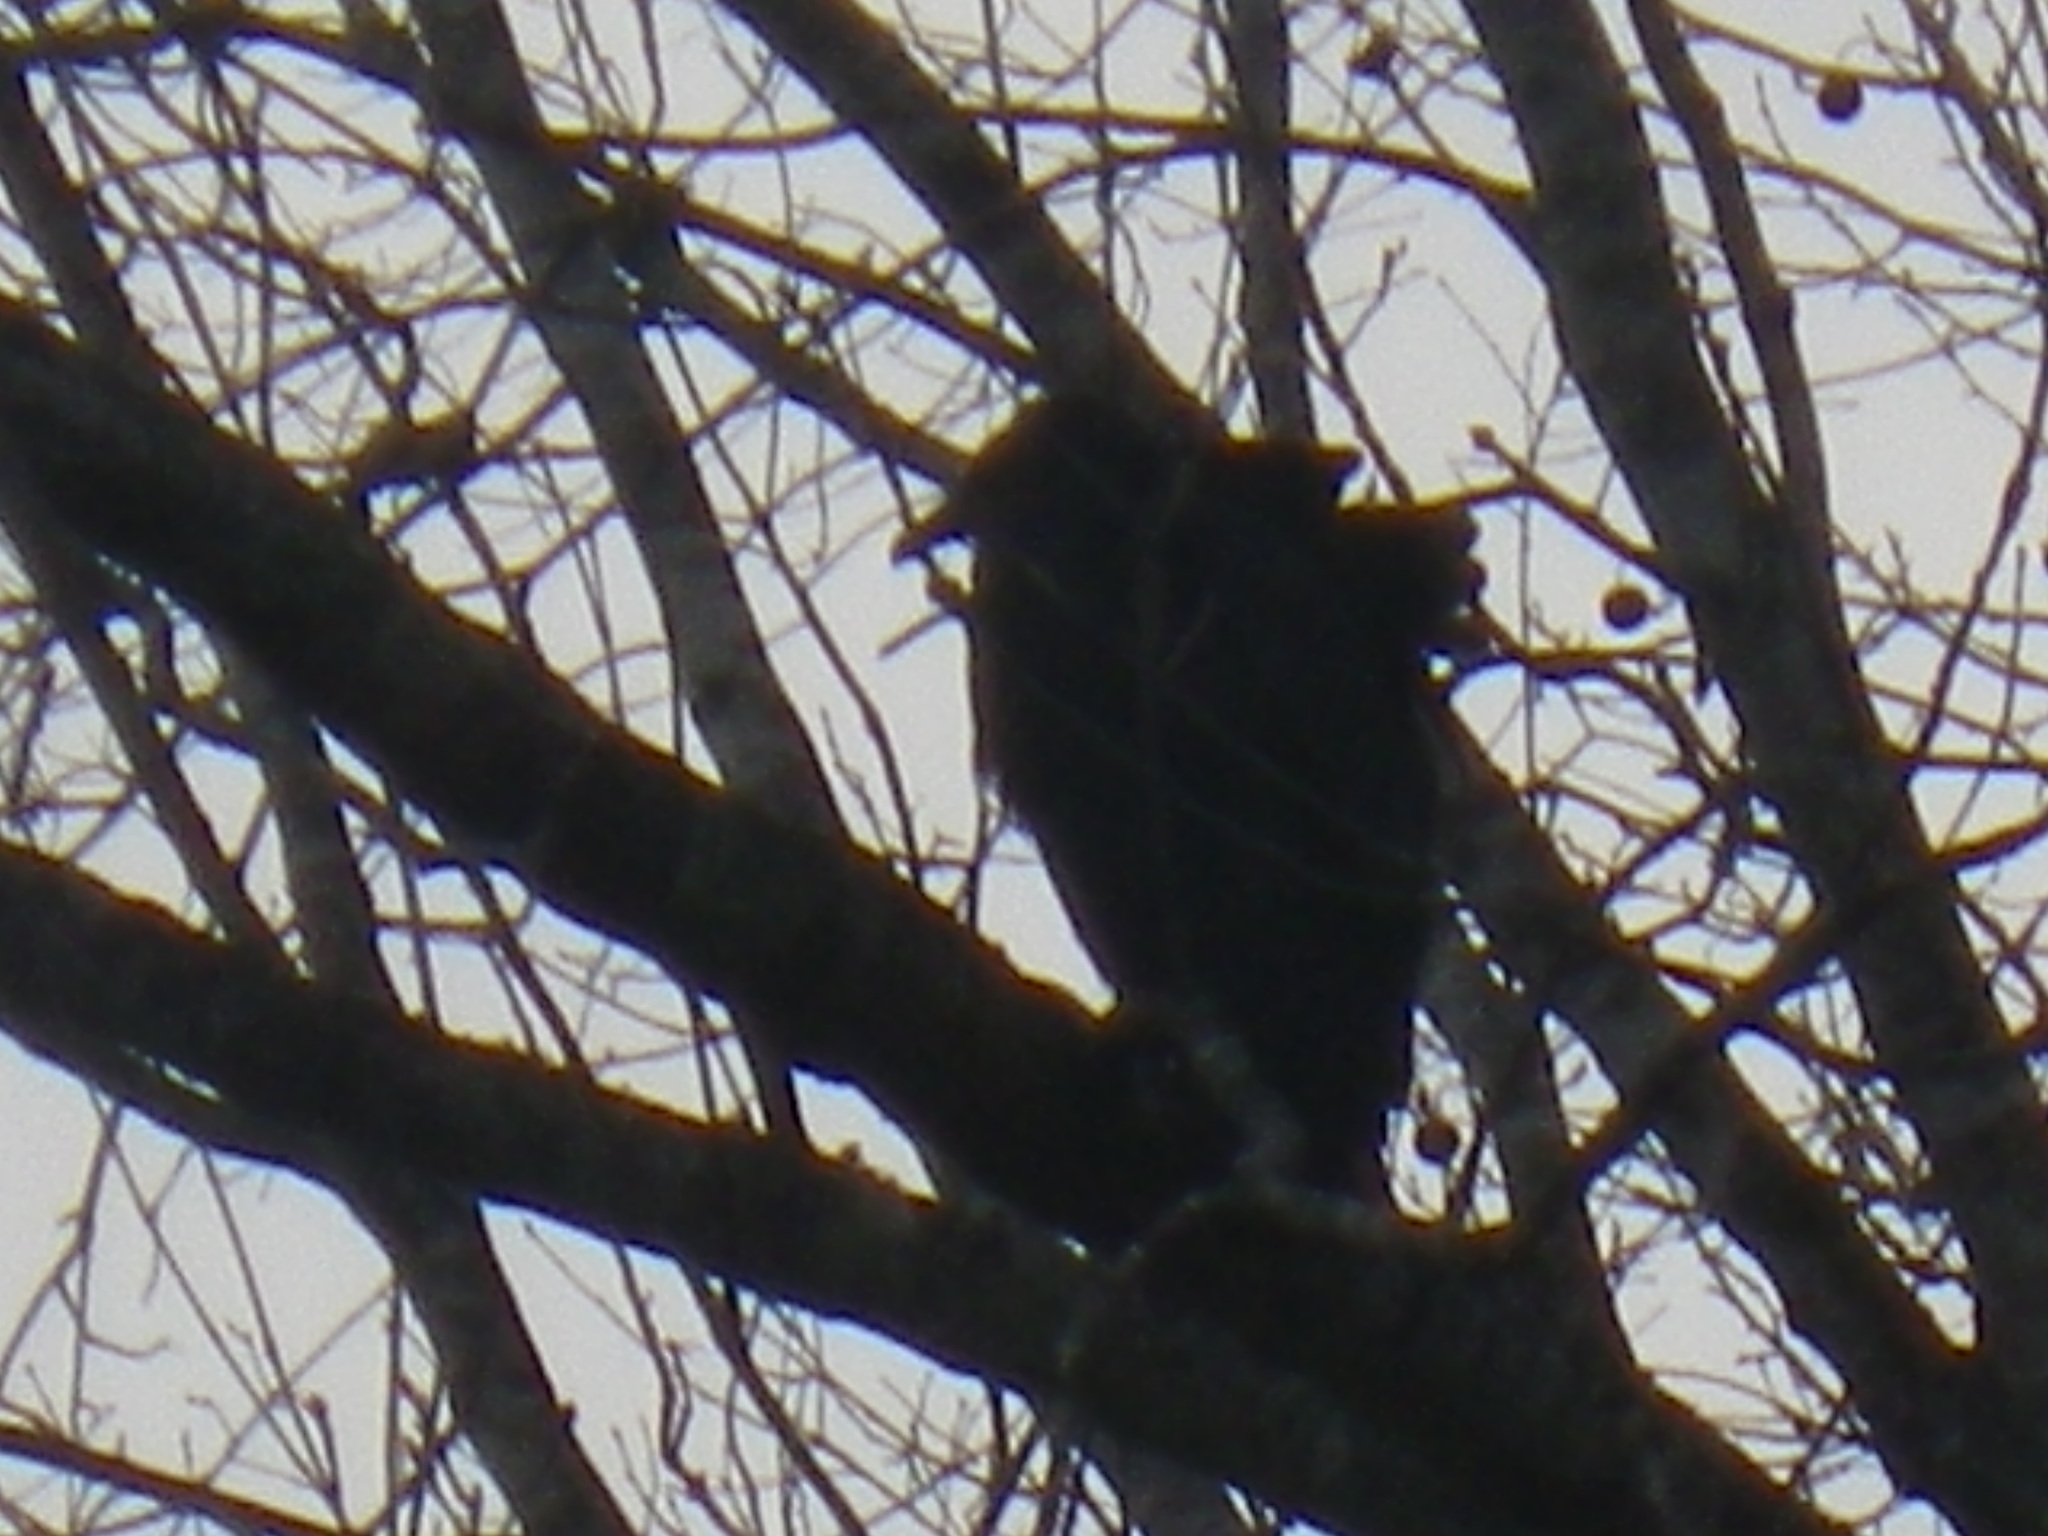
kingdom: Animalia
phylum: Chordata
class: Aves
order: Accipitriformes
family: Cathartidae
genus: Coragyps
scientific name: Coragyps atratus
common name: Black vulture
